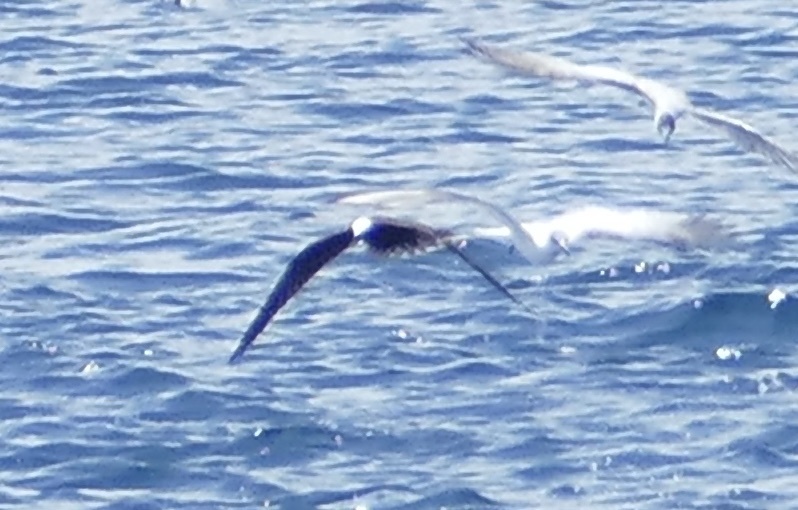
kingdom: Animalia
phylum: Chordata
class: Aves
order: Charadriiformes
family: Laridae
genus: Anous
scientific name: Anous stolidus
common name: Brown noddy
